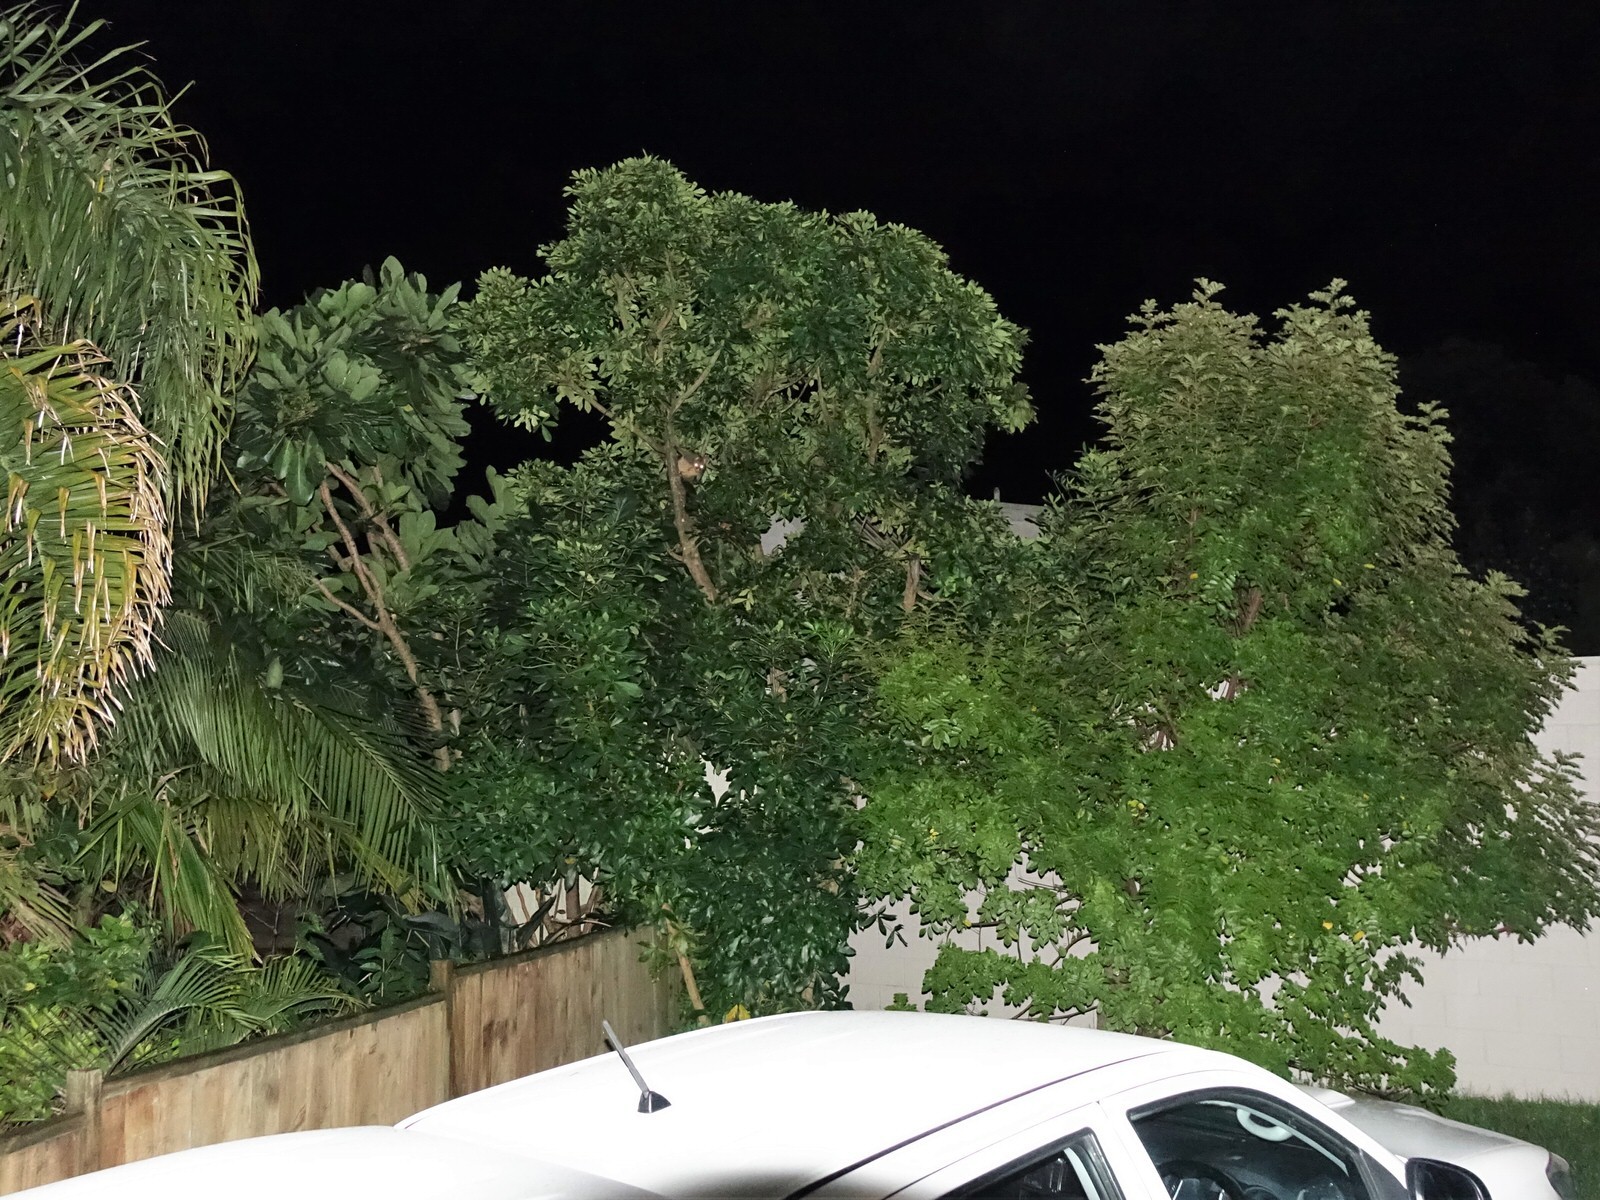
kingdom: Animalia
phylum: Chordata
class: Mammalia
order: Diprotodontia
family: Phalangeridae
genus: Trichosurus
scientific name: Trichosurus vulpecula
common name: Common brushtail
